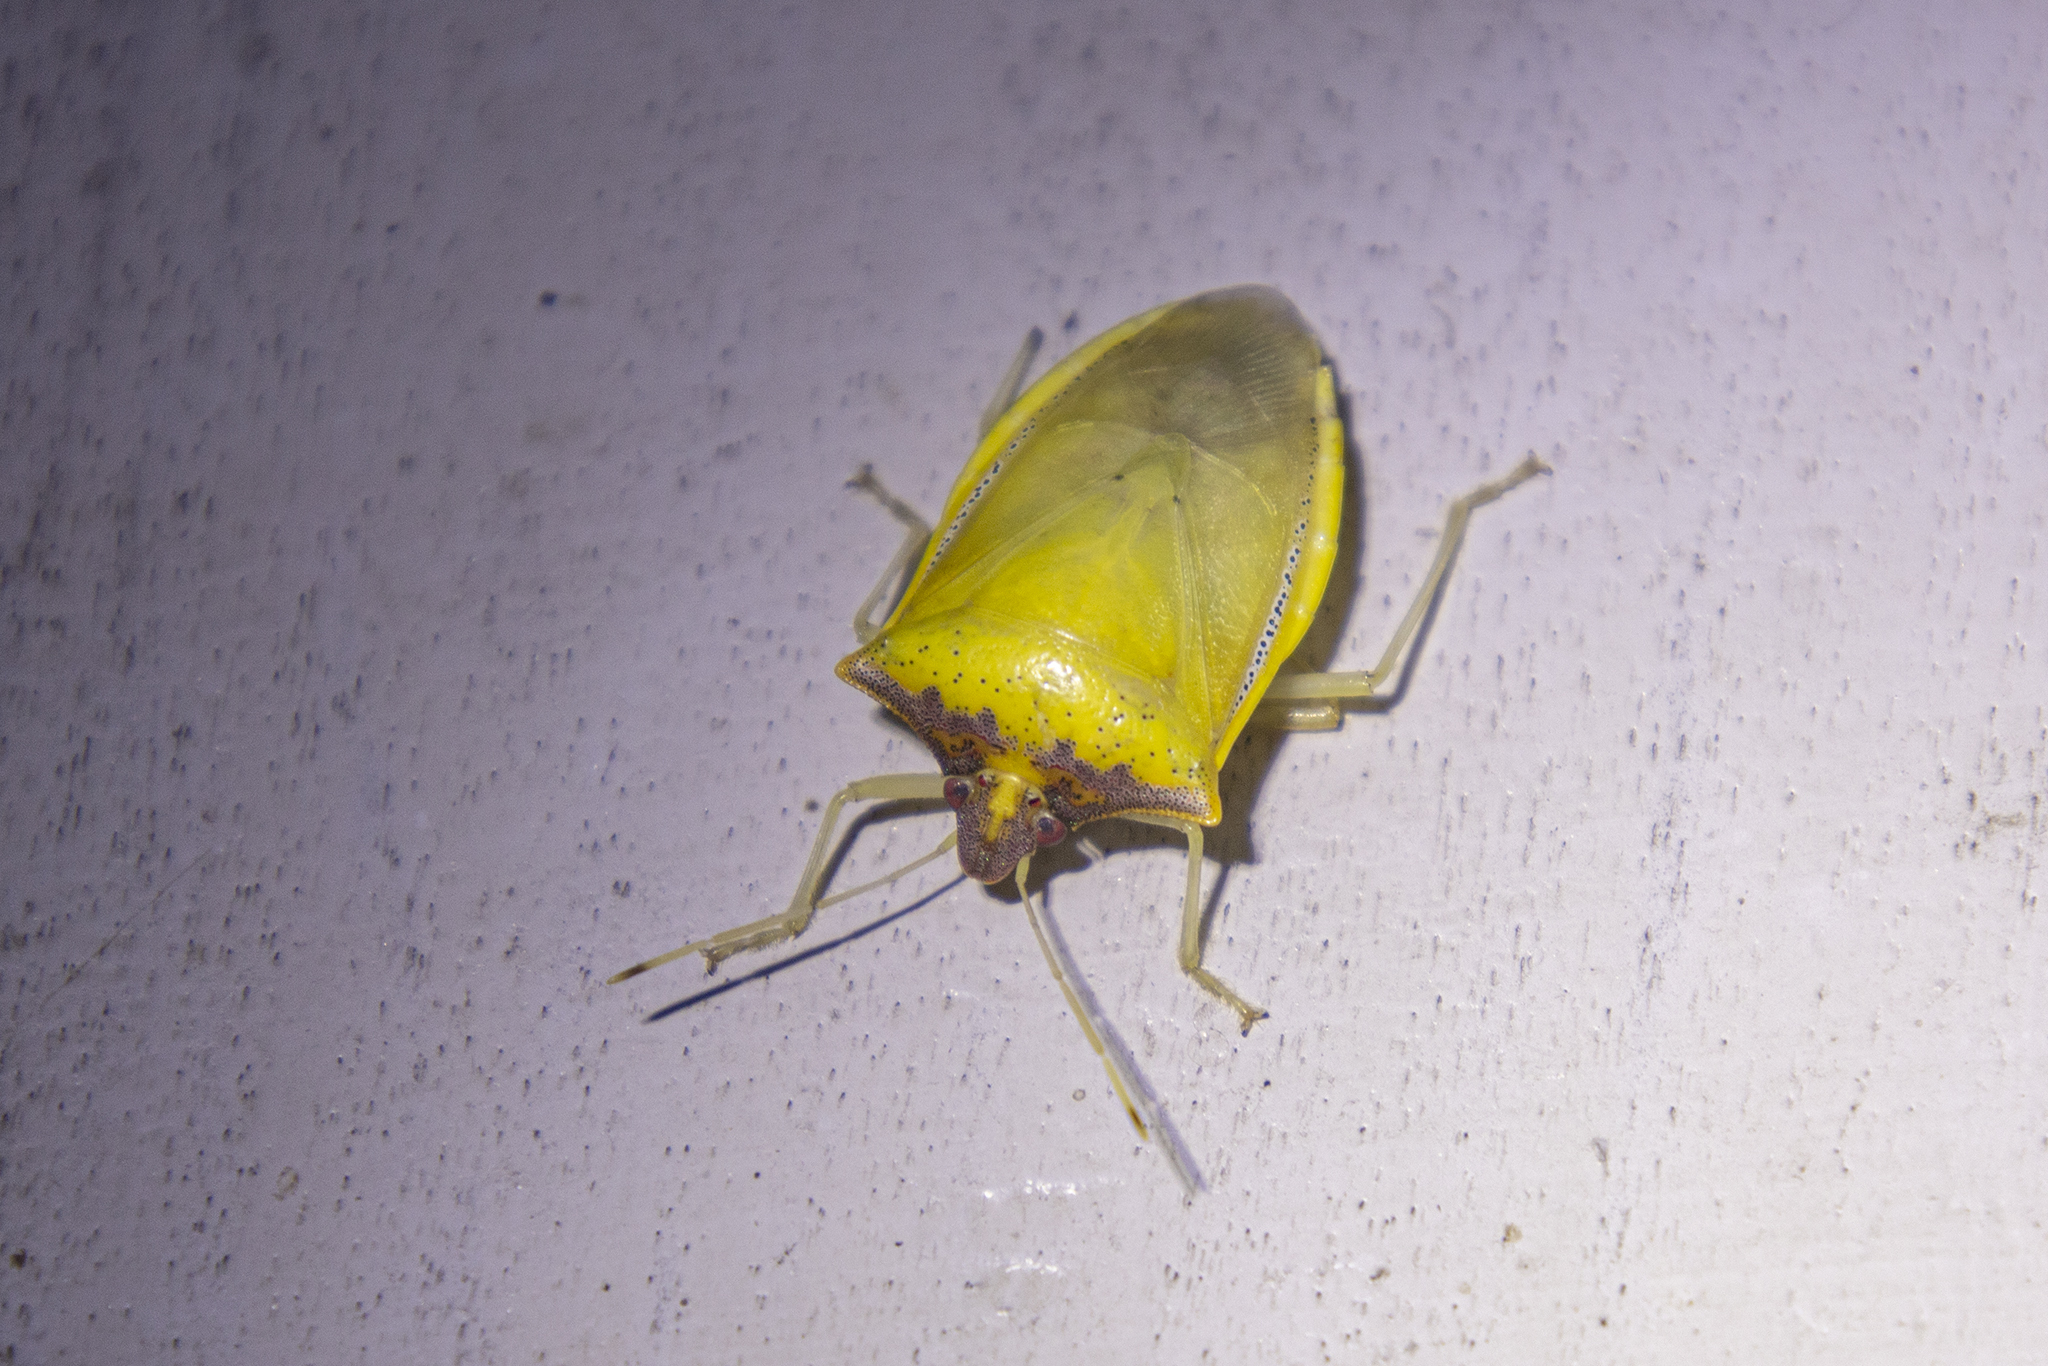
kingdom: Animalia
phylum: Arthropoda
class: Insecta
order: Hemiptera
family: Pentatomidae
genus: Priassus
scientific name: Priassus exemptus
